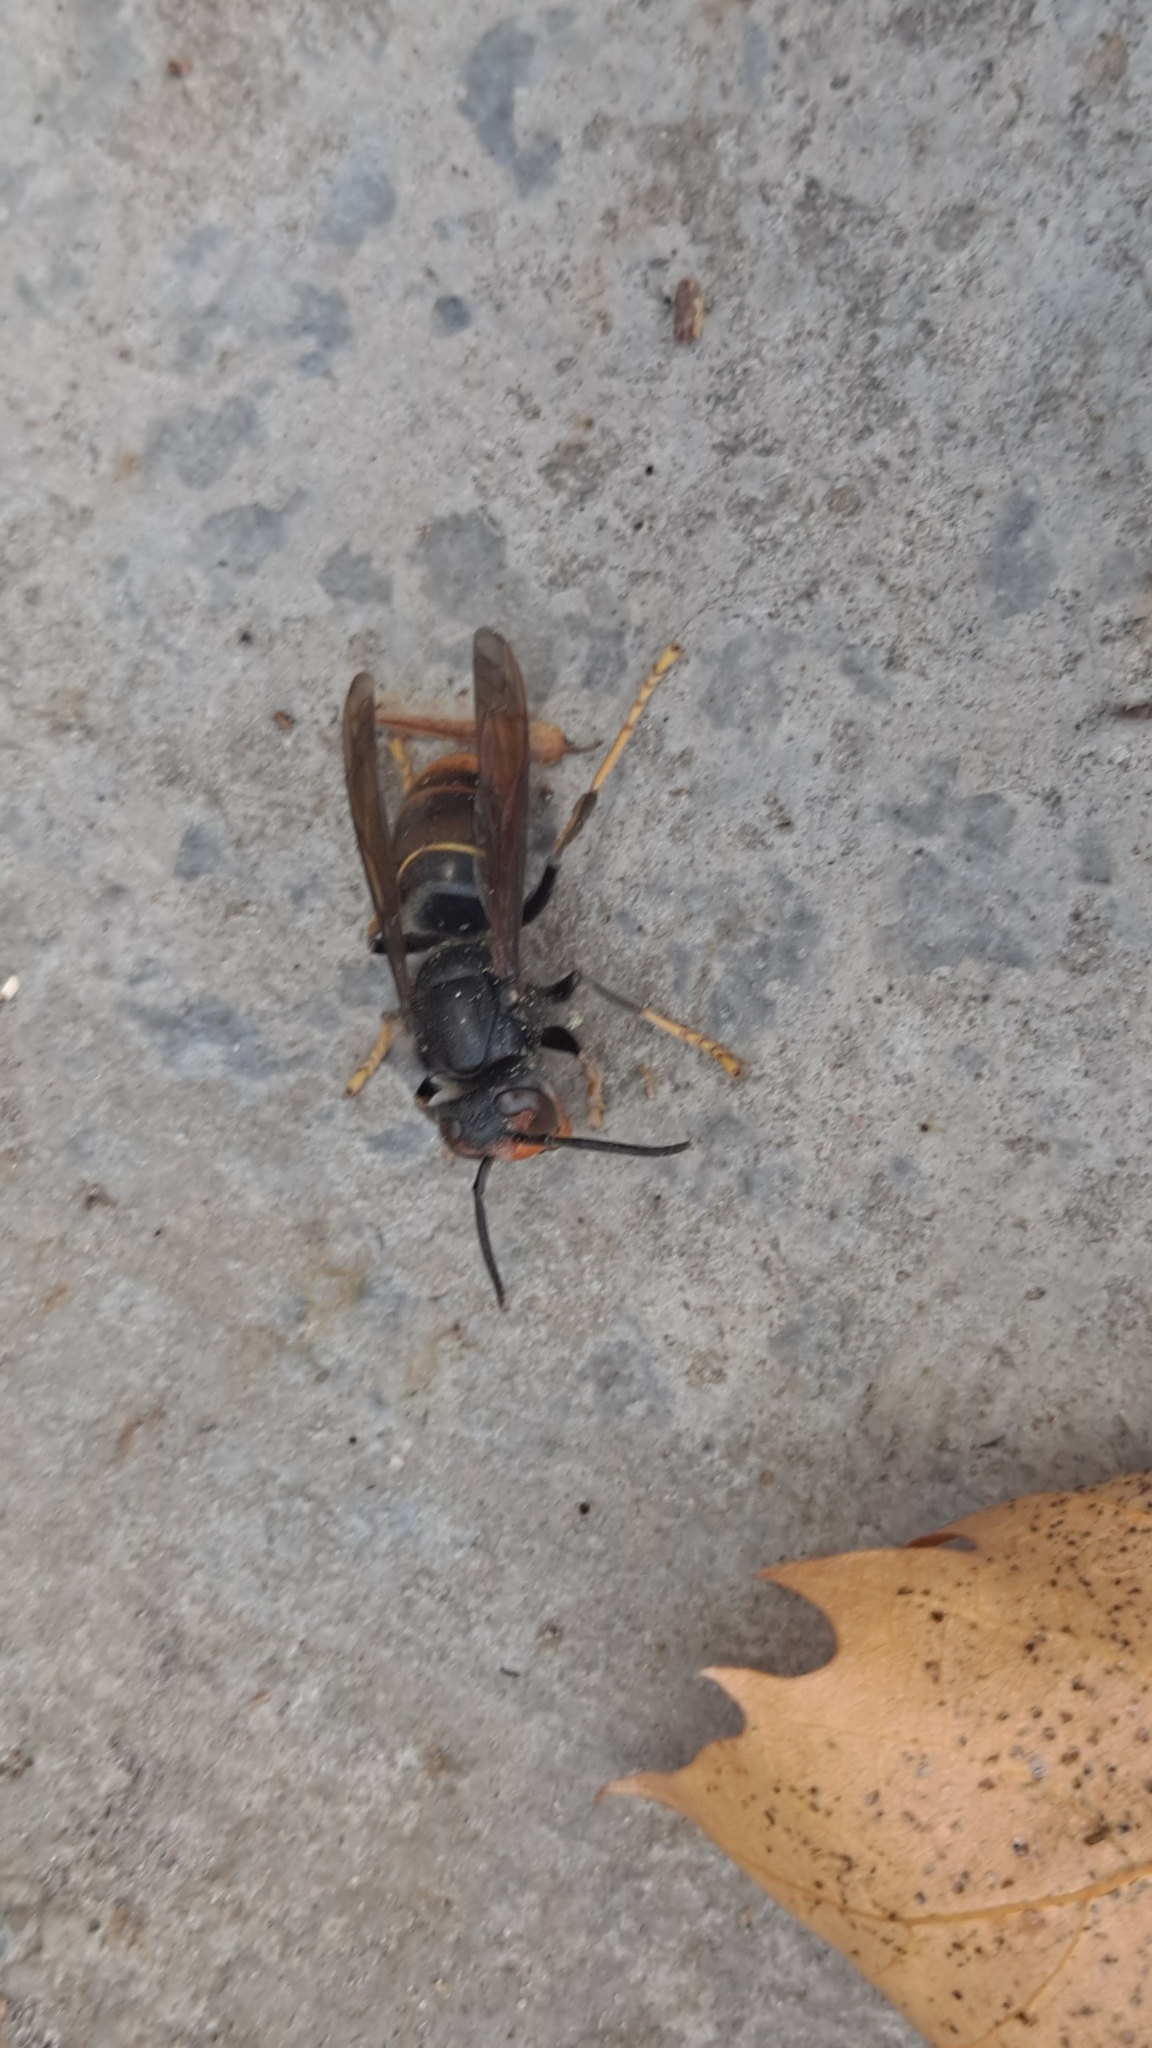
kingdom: Animalia
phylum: Arthropoda
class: Insecta
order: Hymenoptera
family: Vespidae
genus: Vespa
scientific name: Vespa velutina
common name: Asian hornet
